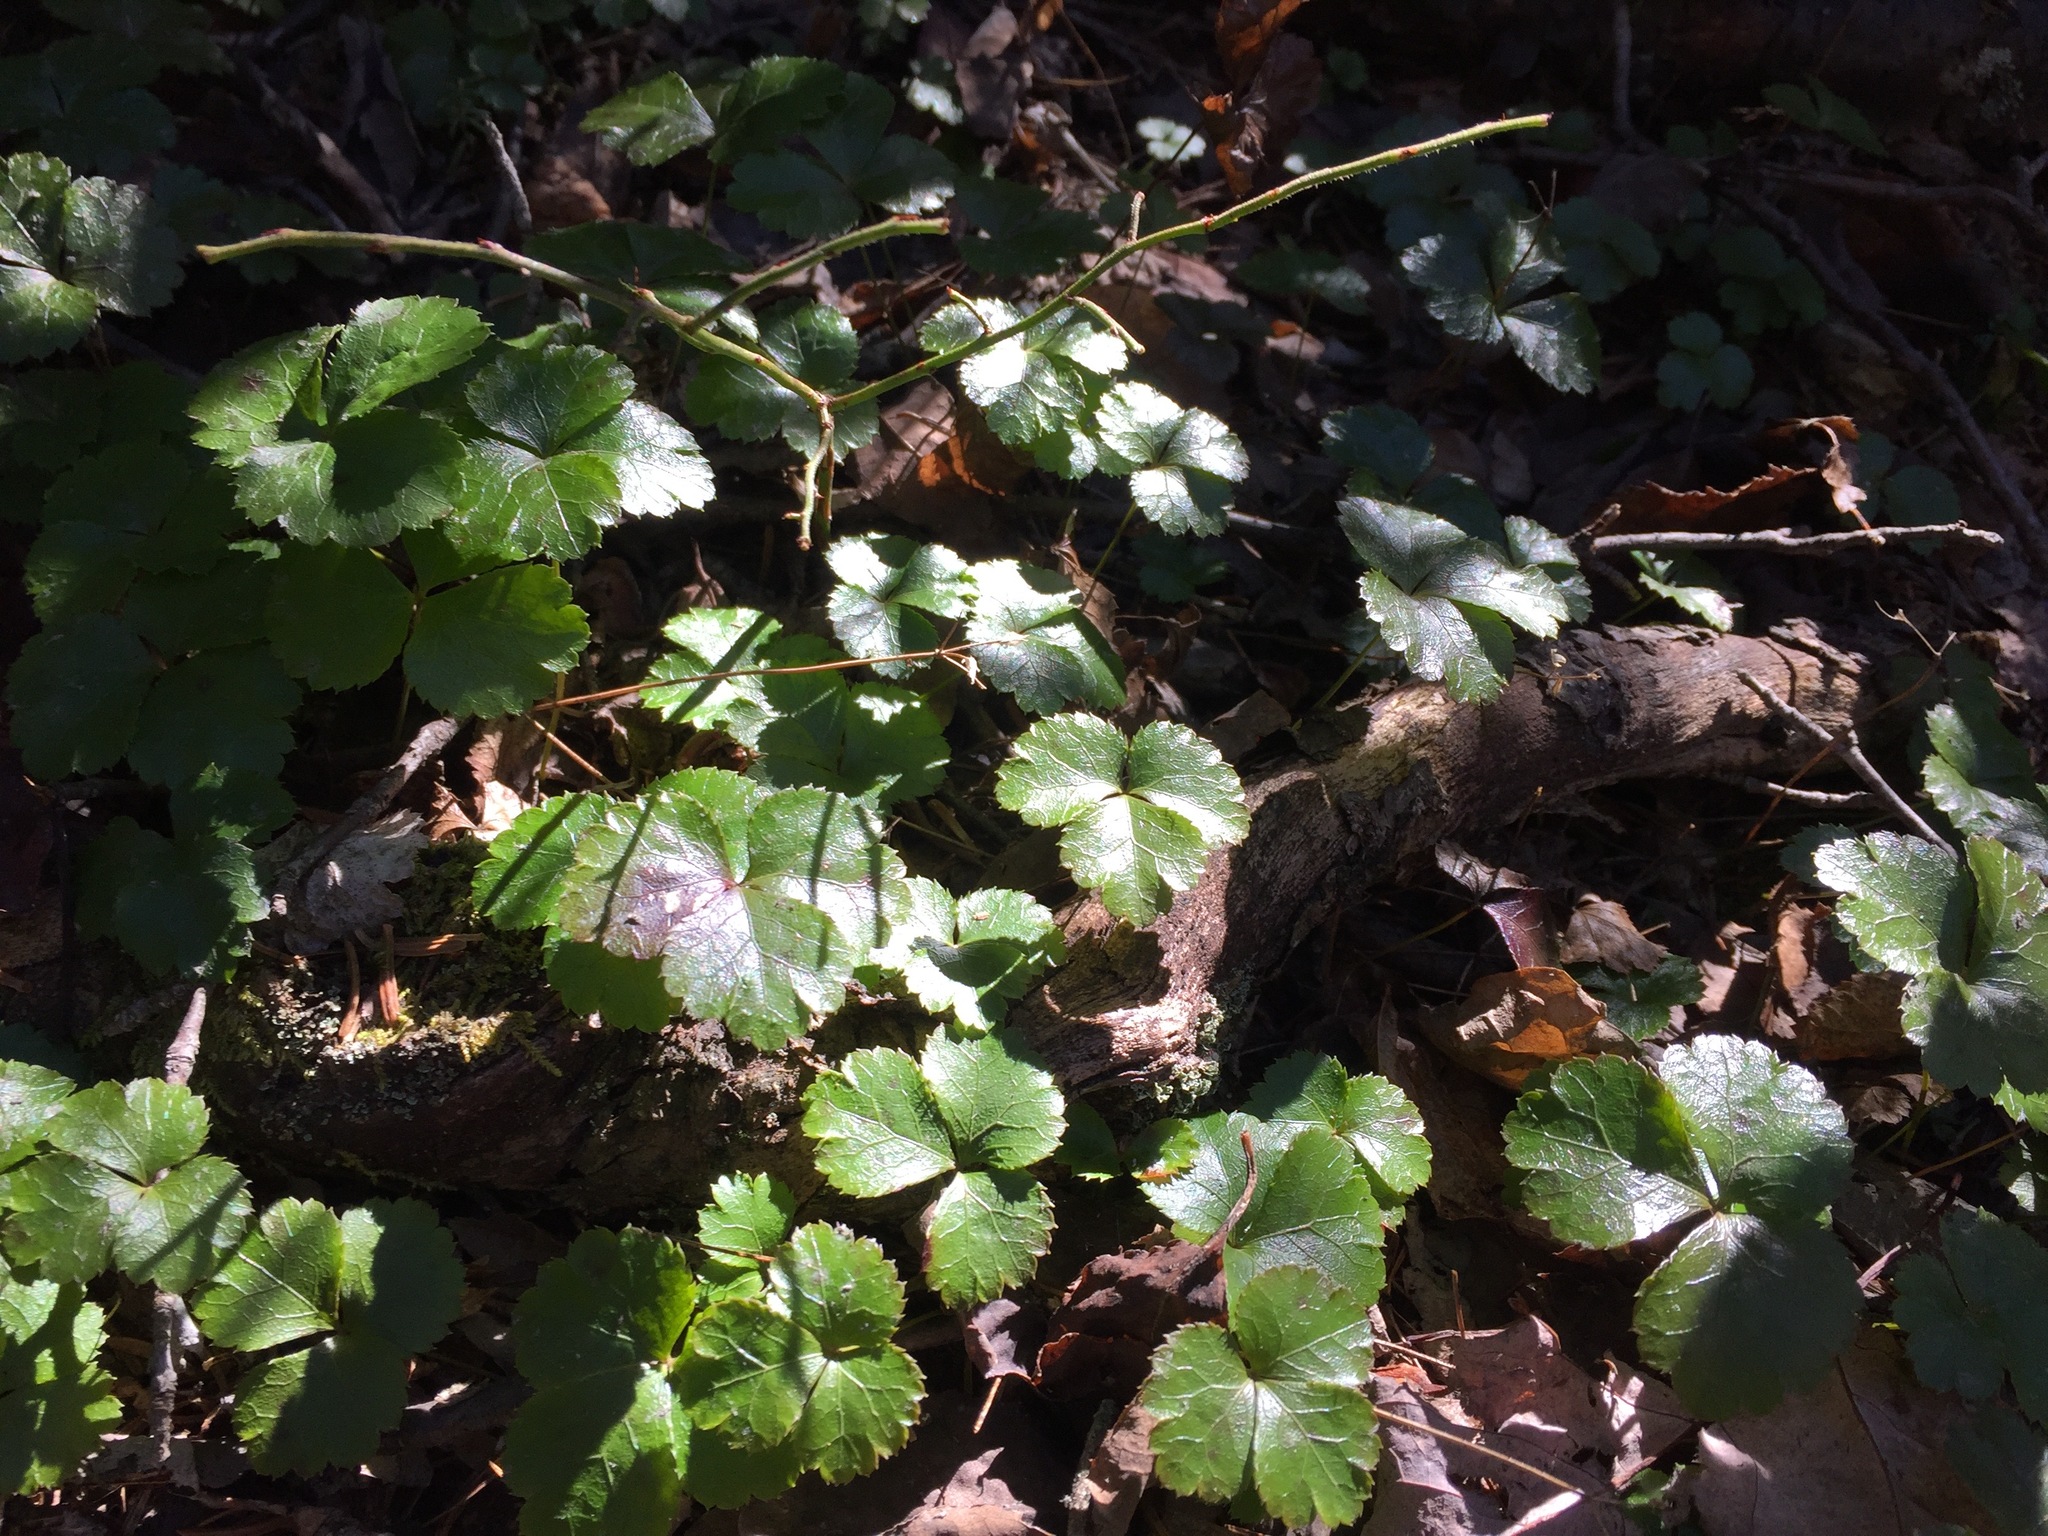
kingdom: Plantae
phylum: Tracheophyta
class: Magnoliopsida
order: Ranunculales
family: Ranunculaceae
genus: Coptis
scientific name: Coptis trifolia
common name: Canker-root
